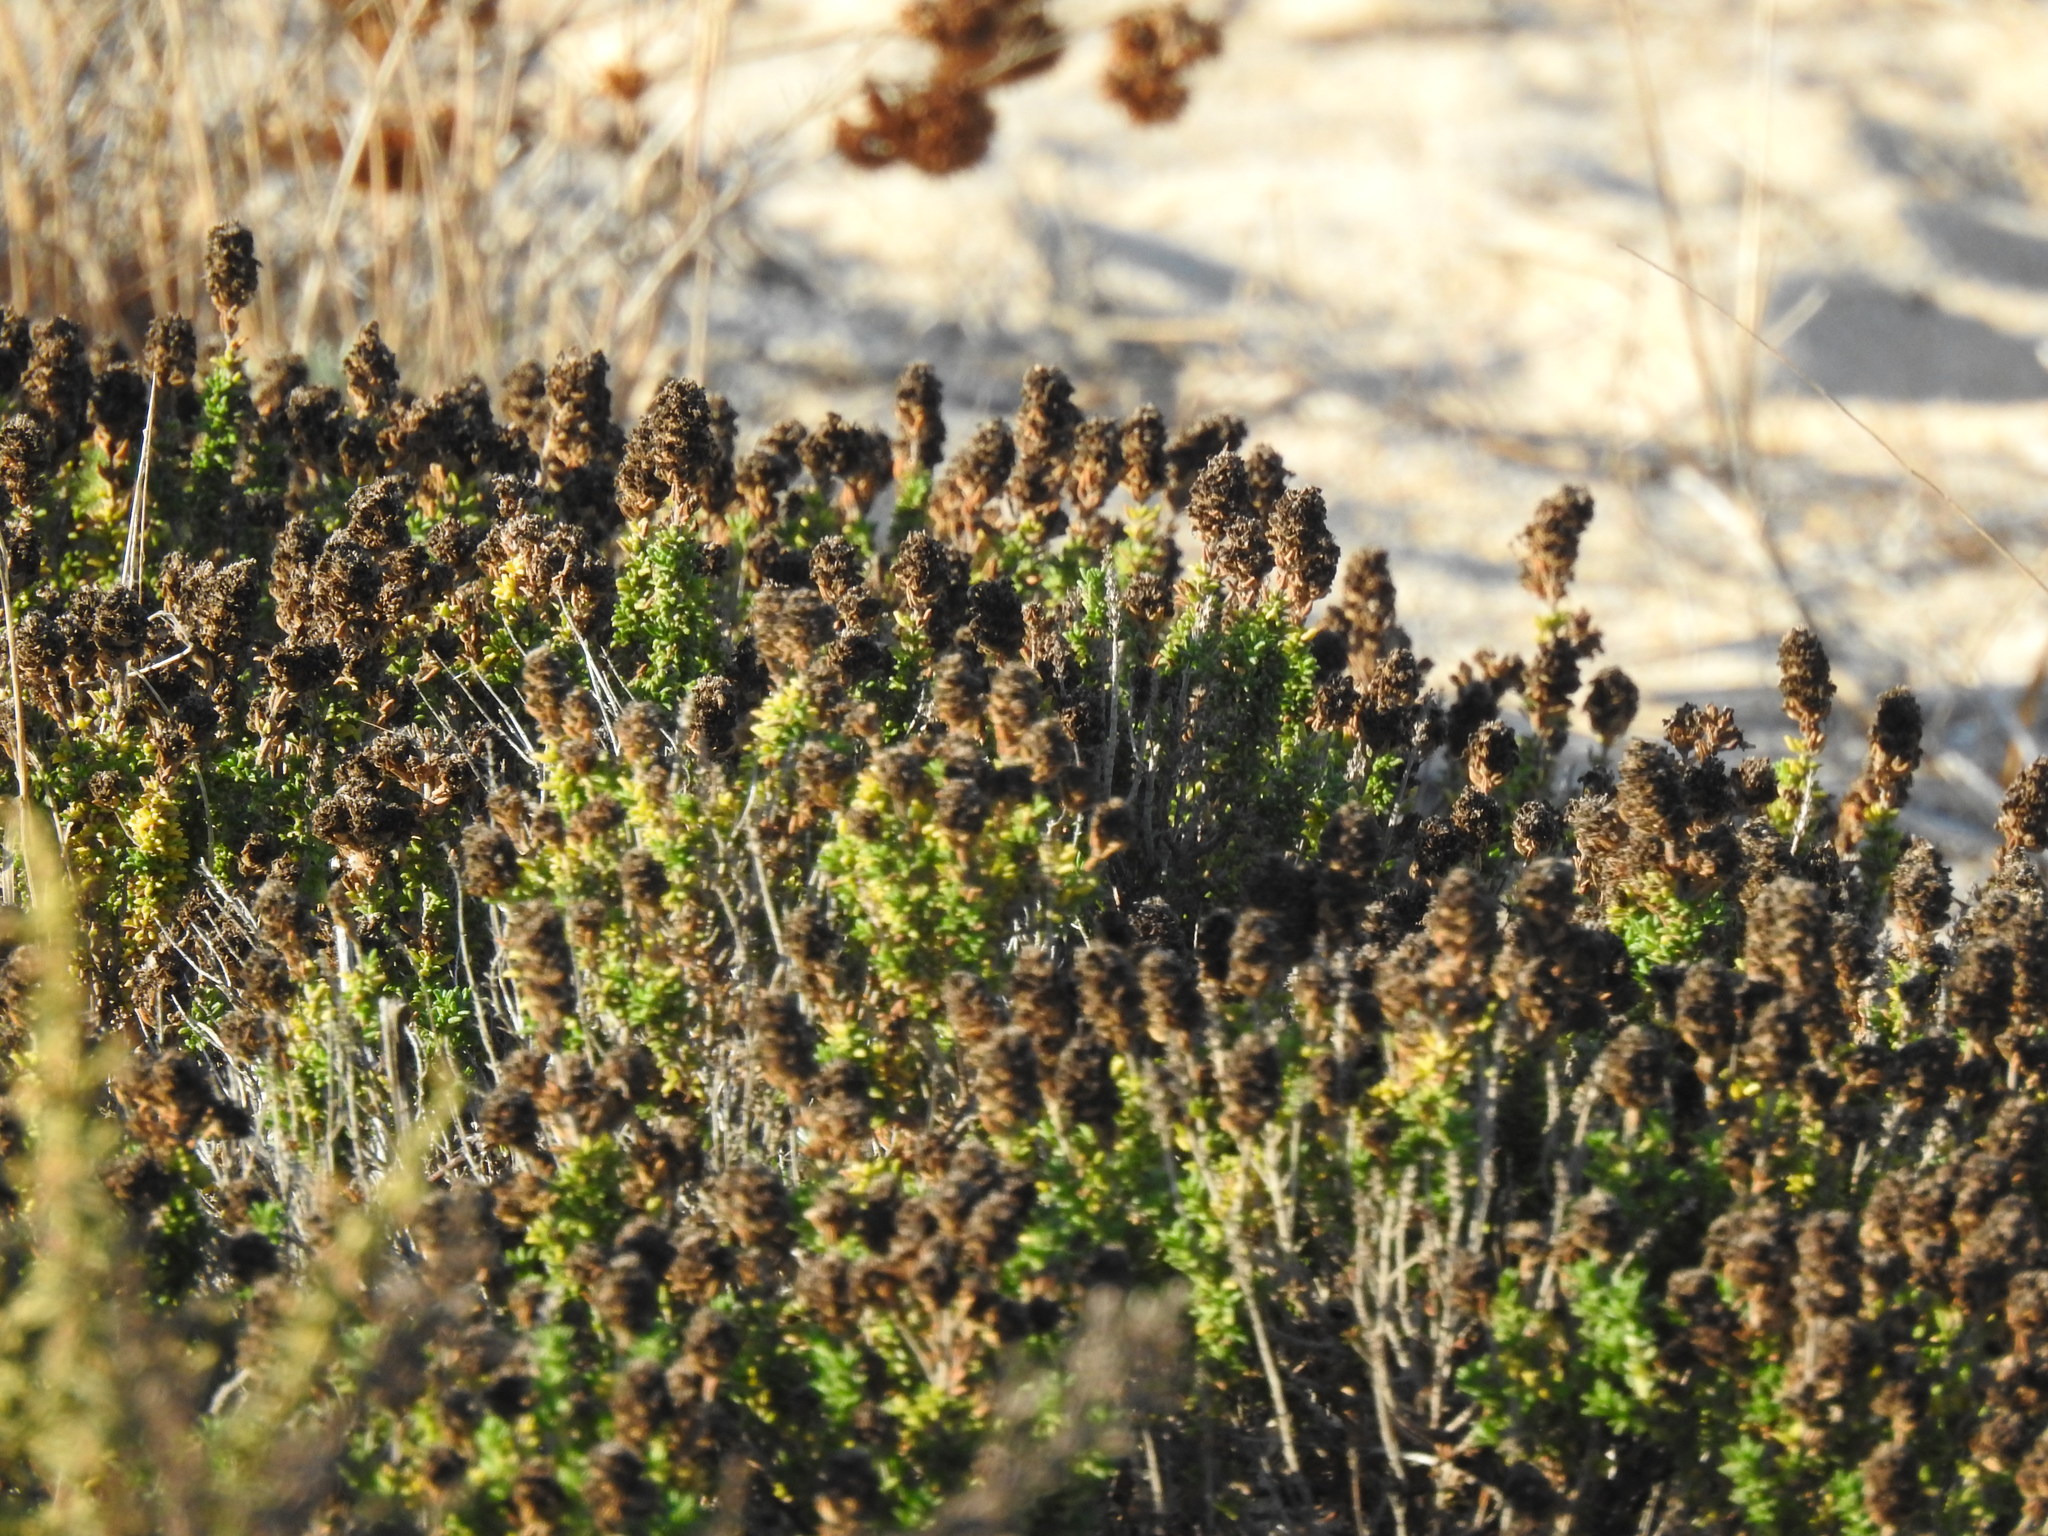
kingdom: Plantae
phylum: Tracheophyta
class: Magnoliopsida
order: Lamiales
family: Lamiaceae
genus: Thymus
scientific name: Thymus carnosus
